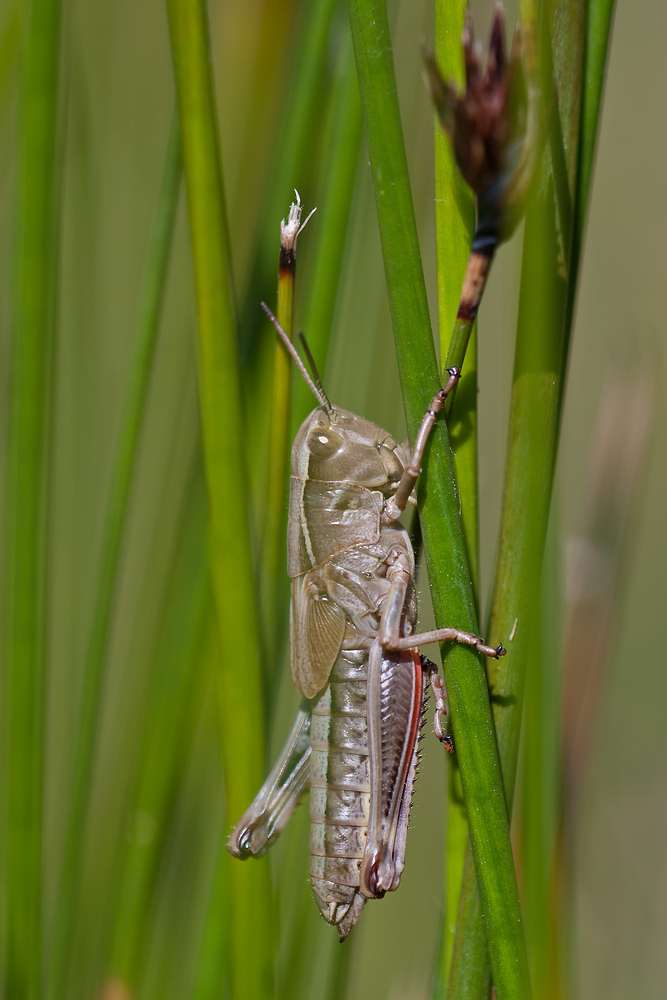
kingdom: Animalia
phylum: Arthropoda
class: Insecta
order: Orthoptera
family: Acrididae
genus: Stethophyma
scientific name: Stethophyma grossum
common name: Large marsh grasshopper
